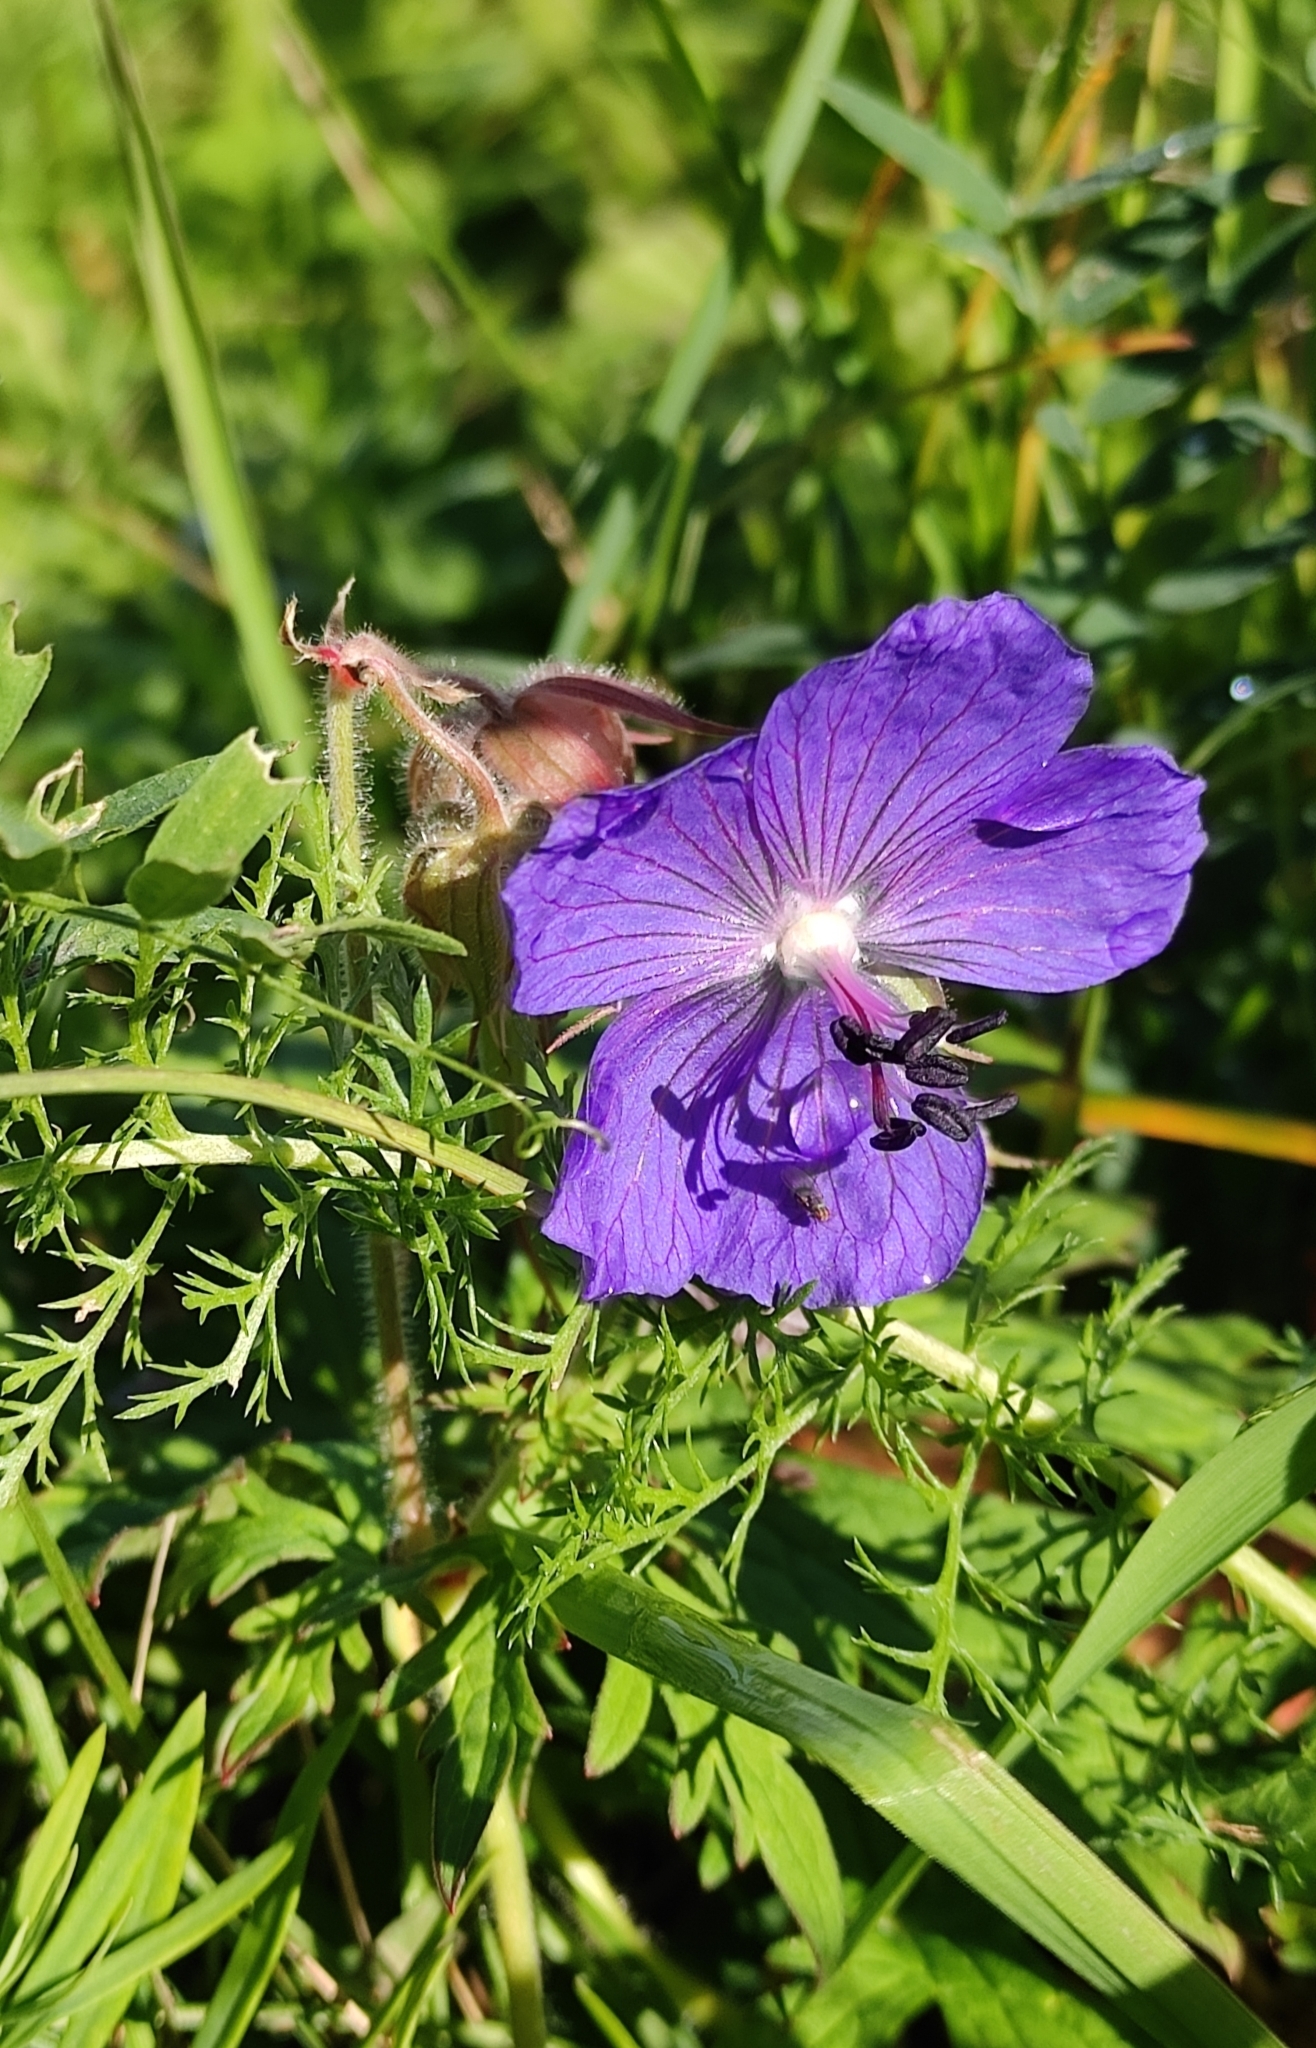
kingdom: Plantae
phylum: Tracheophyta
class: Magnoliopsida
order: Geraniales
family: Geraniaceae
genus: Geranium
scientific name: Geranium pratense
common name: Meadow crane's-bill
